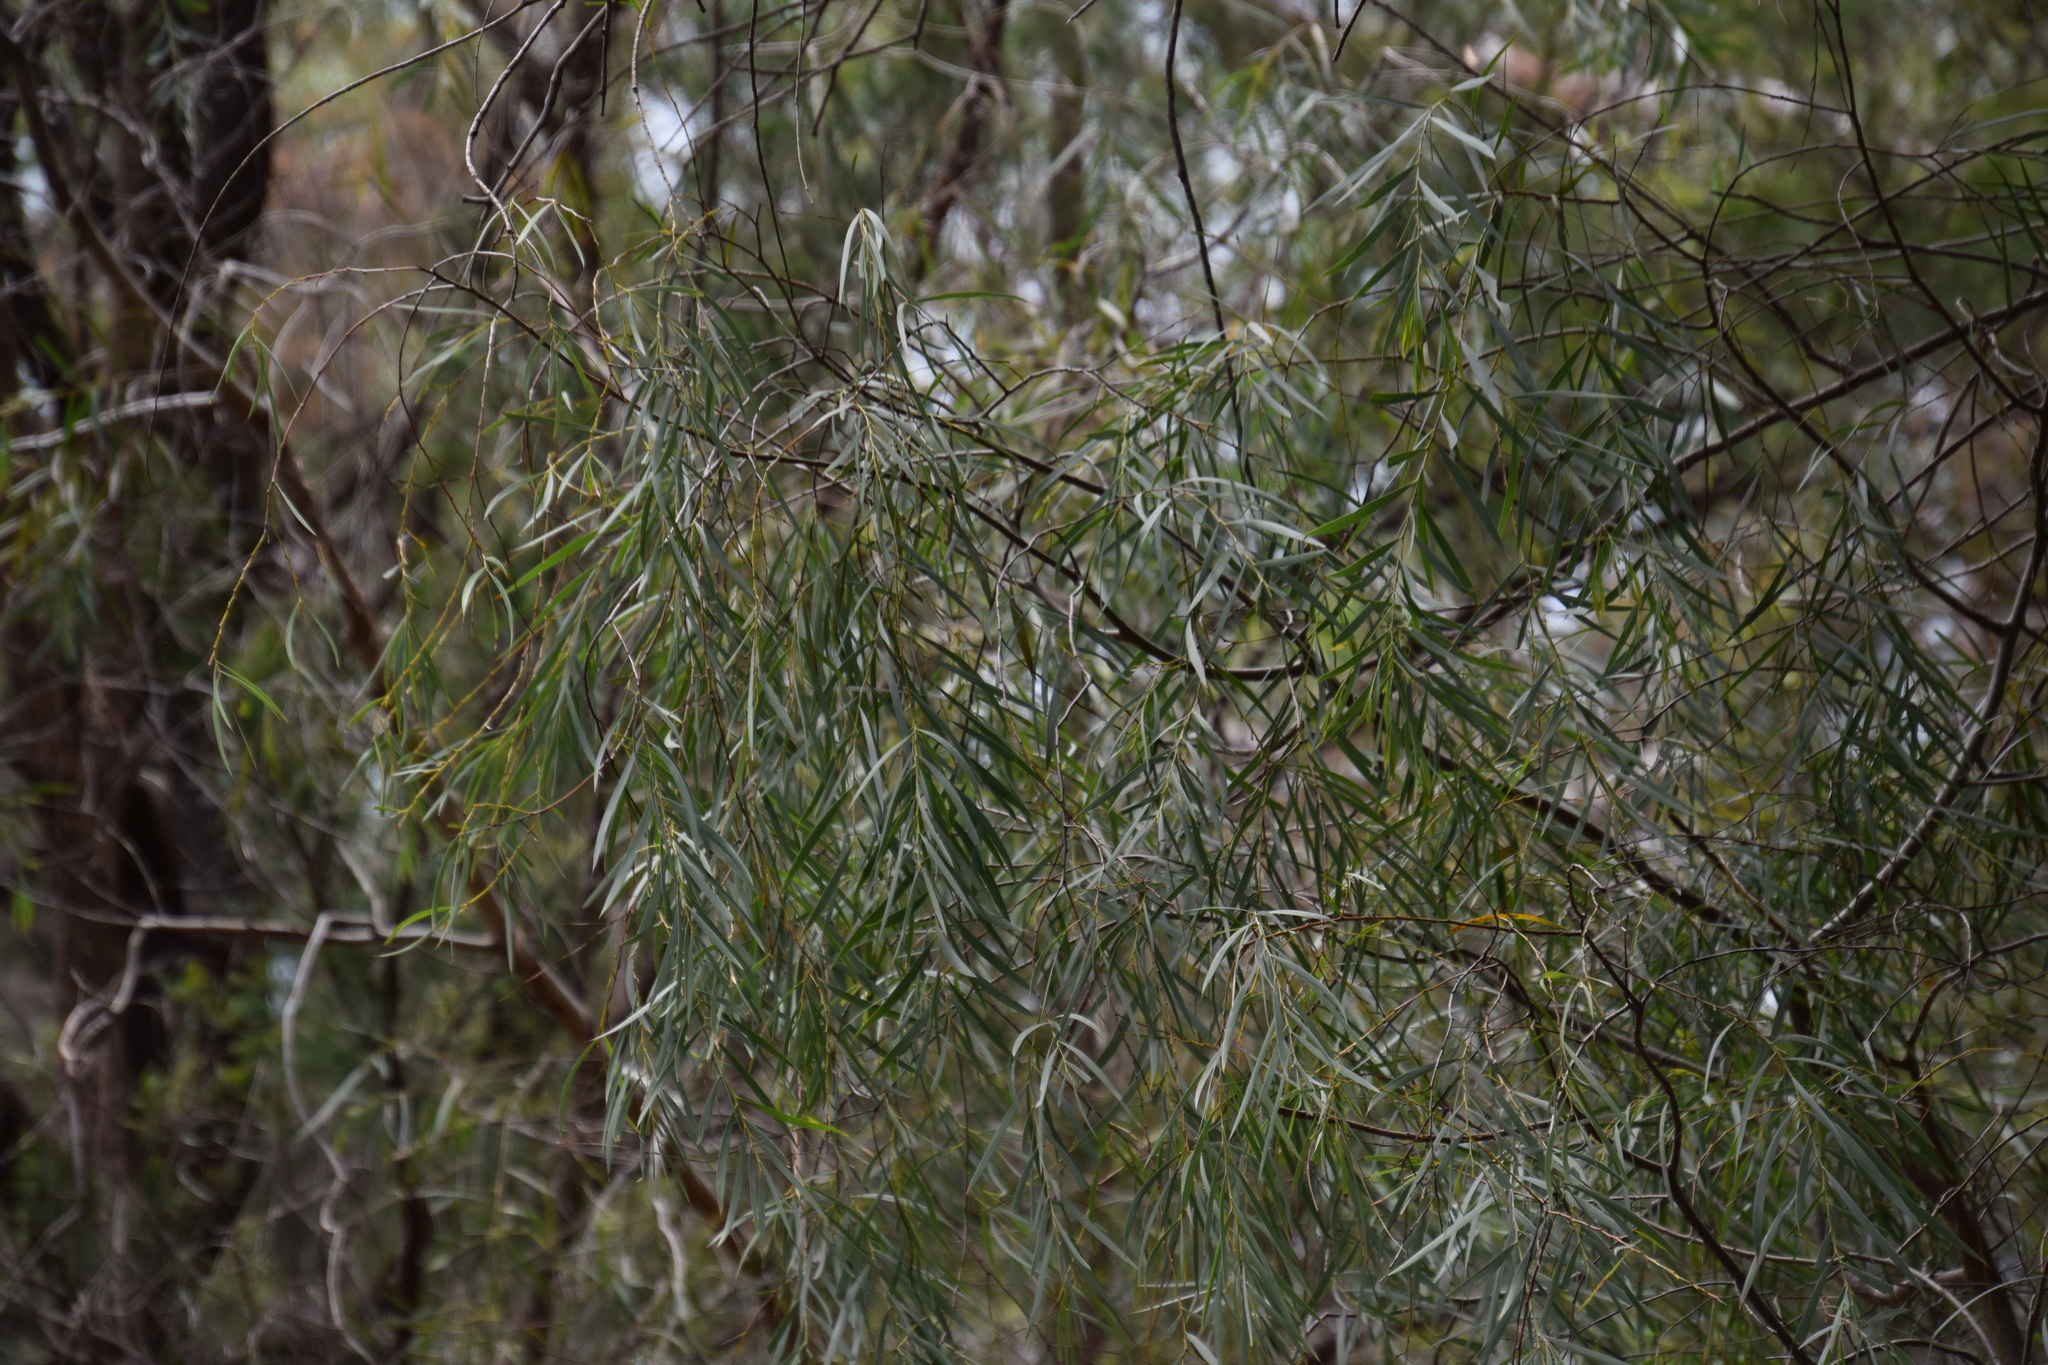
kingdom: Plantae
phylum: Tracheophyta
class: Magnoliopsida
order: Fabales
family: Fabaceae
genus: Acacia
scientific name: Acacia courtii
